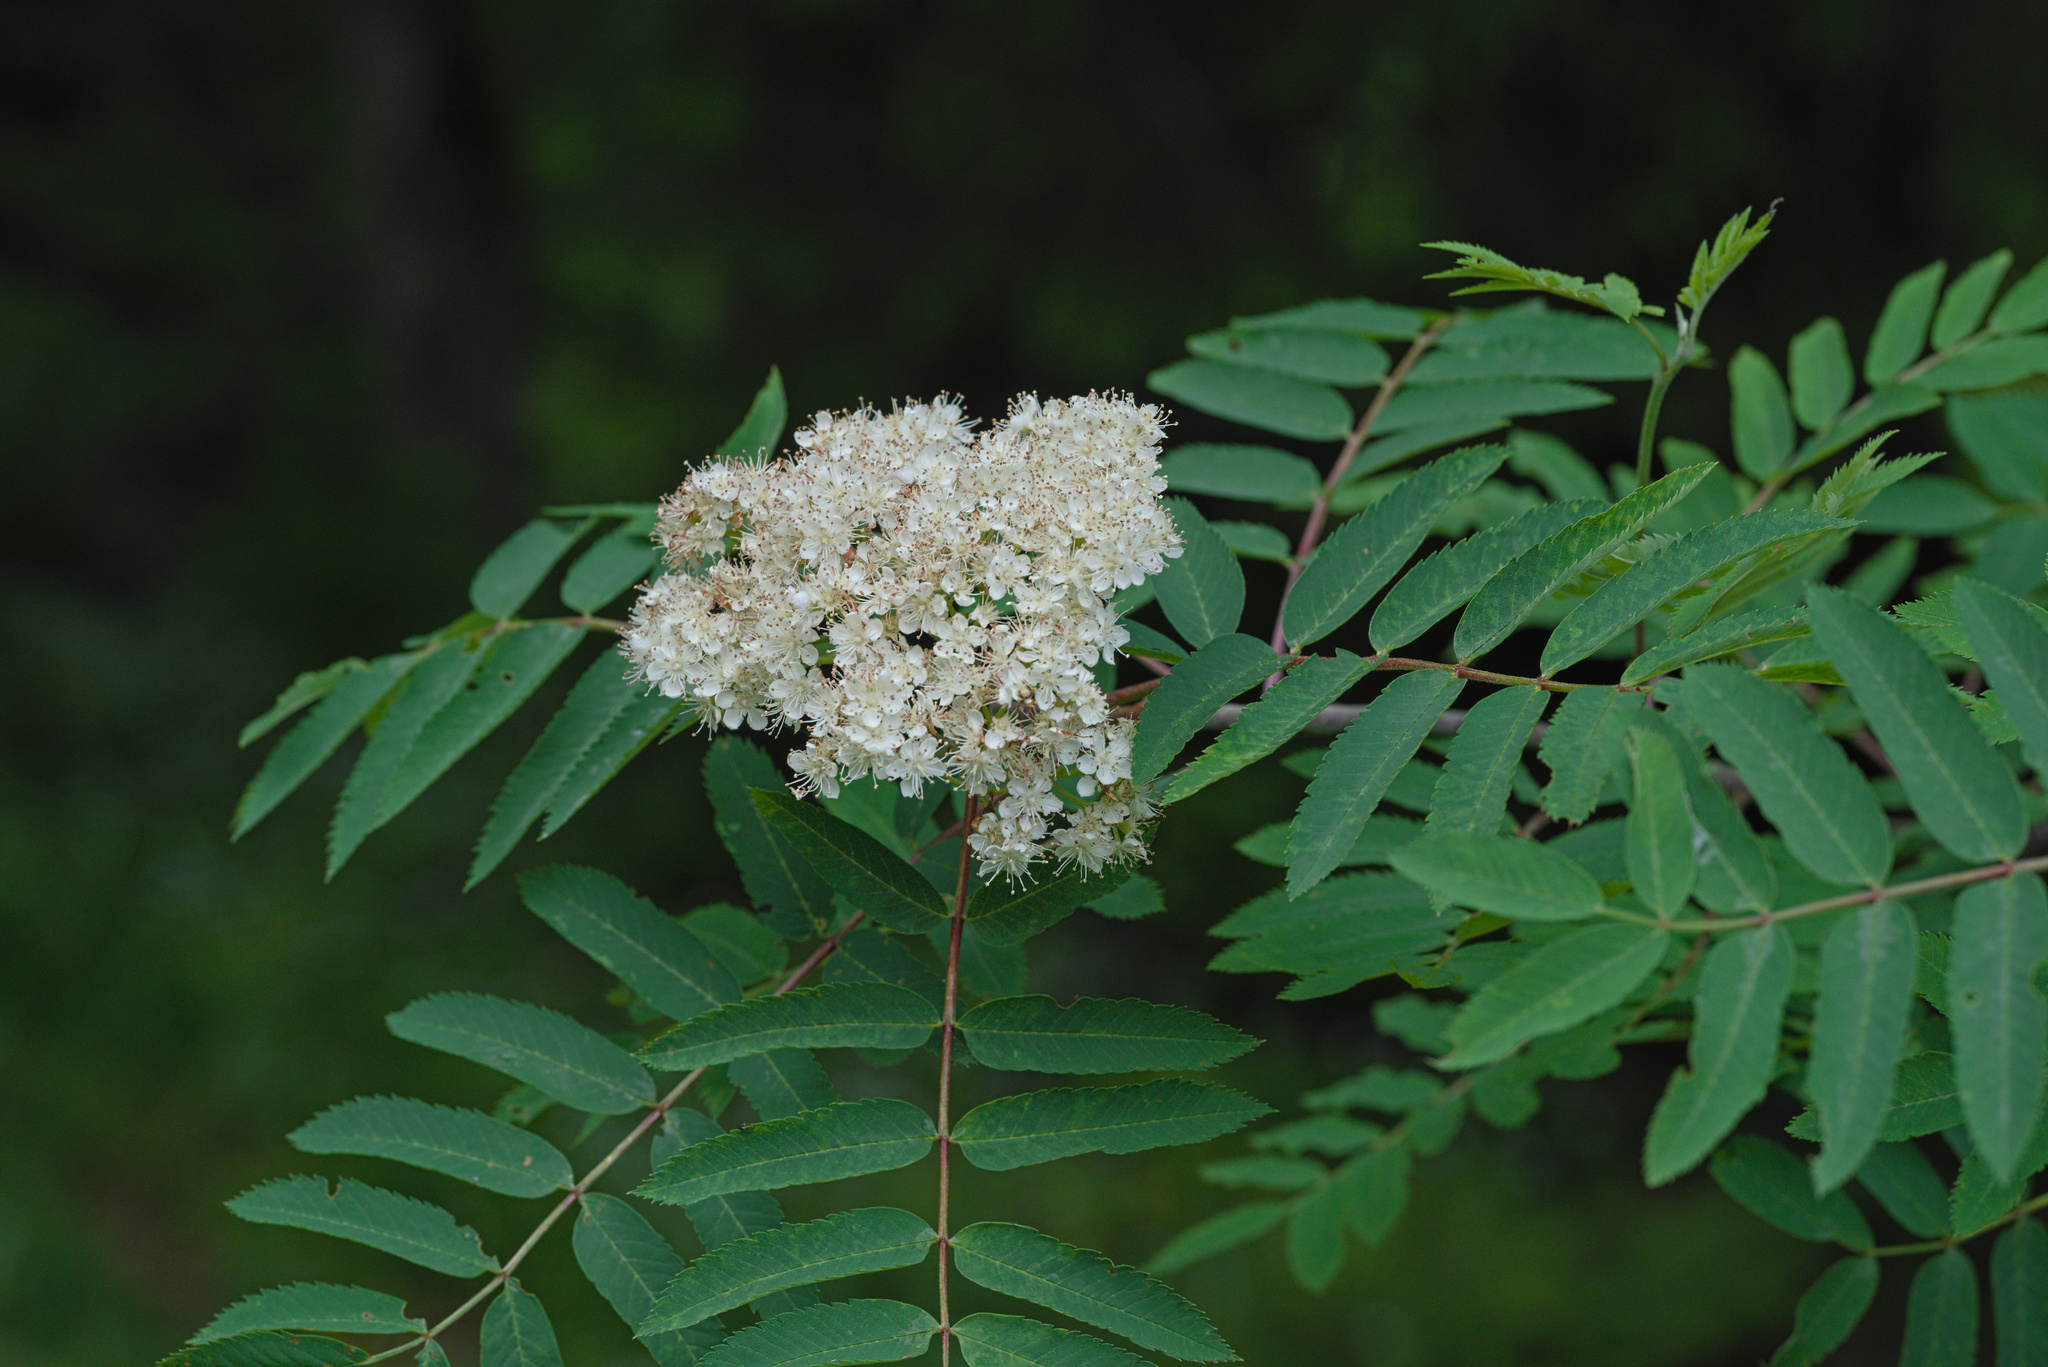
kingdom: Plantae
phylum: Tracheophyta
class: Magnoliopsida
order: Rosales
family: Rosaceae
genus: Sorbus
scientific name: Sorbus aucuparia
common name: Rowan
